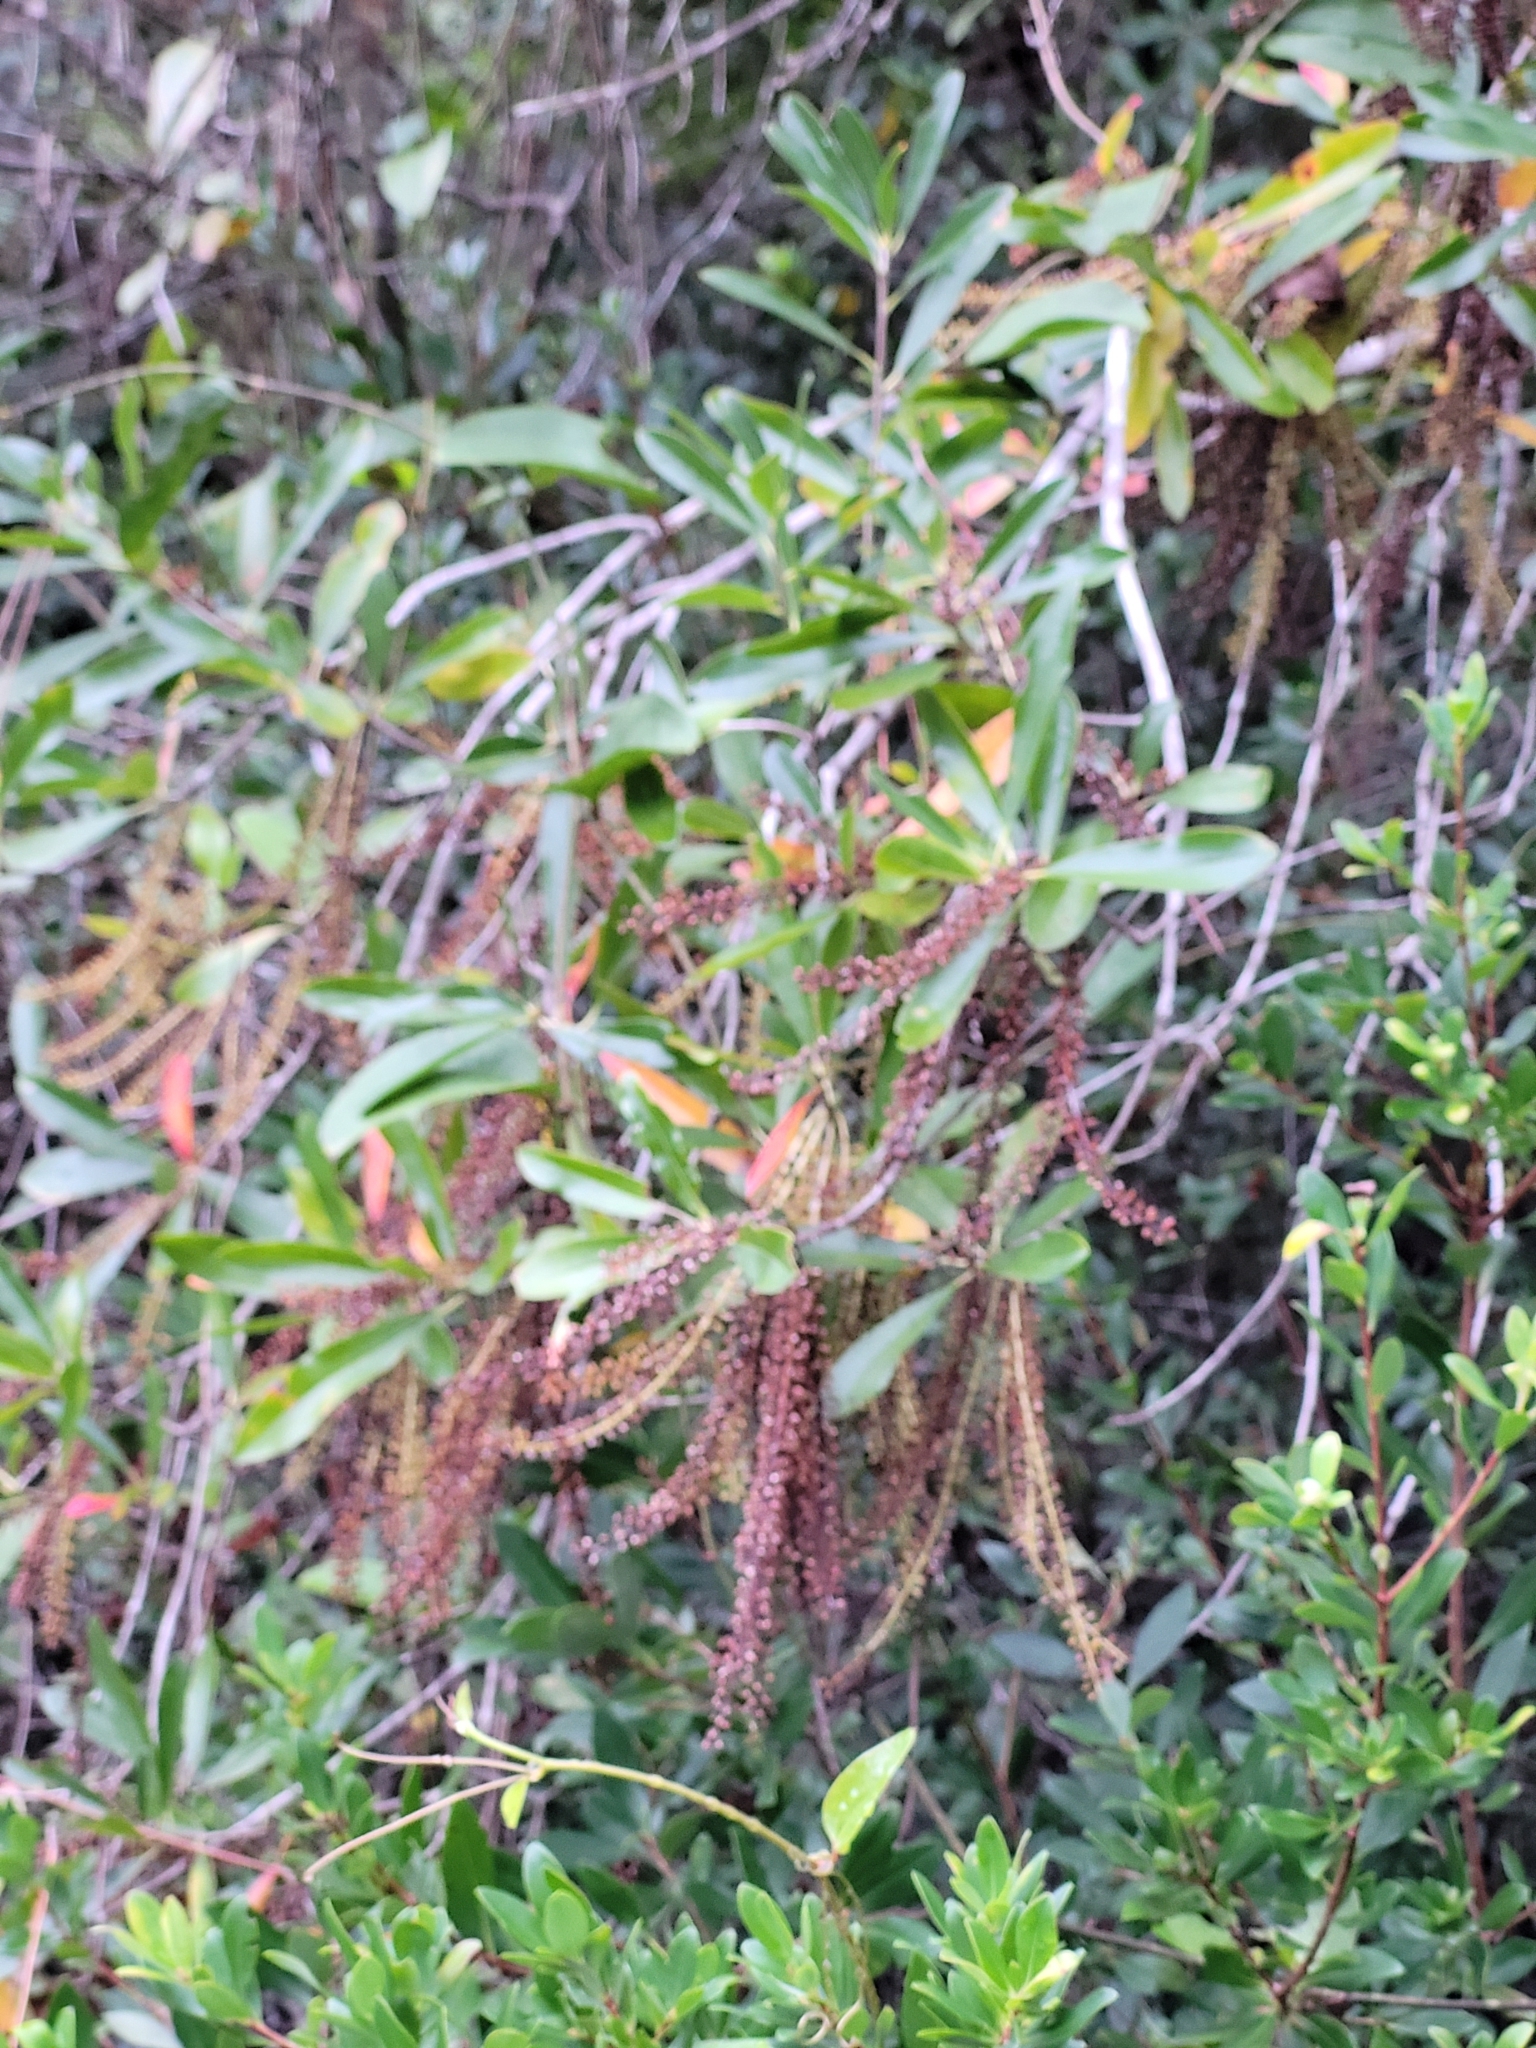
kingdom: Plantae
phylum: Tracheophyta
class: Magnoliopsida
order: Ericales
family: Cyrillaceae
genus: Cyrilla
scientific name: Cyrilla racemiflora
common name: Black titi
